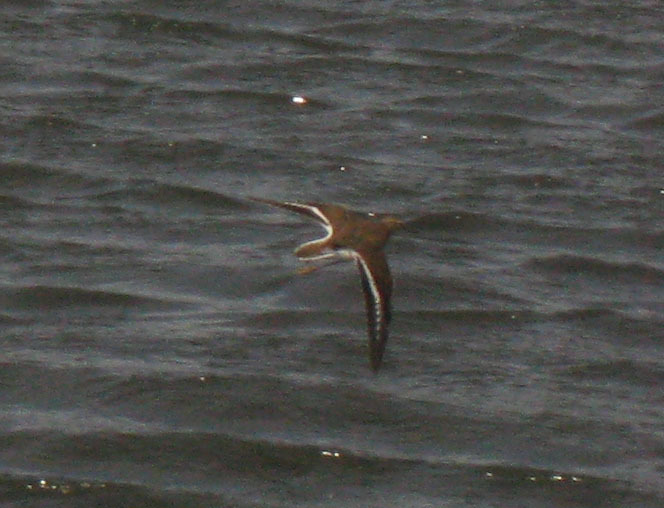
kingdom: Animalia
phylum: Chordata
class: Aves
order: Charadriiformes
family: Scolopacidae
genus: Actitis
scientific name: Actitis hypoleucos
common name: Common sandpiper
